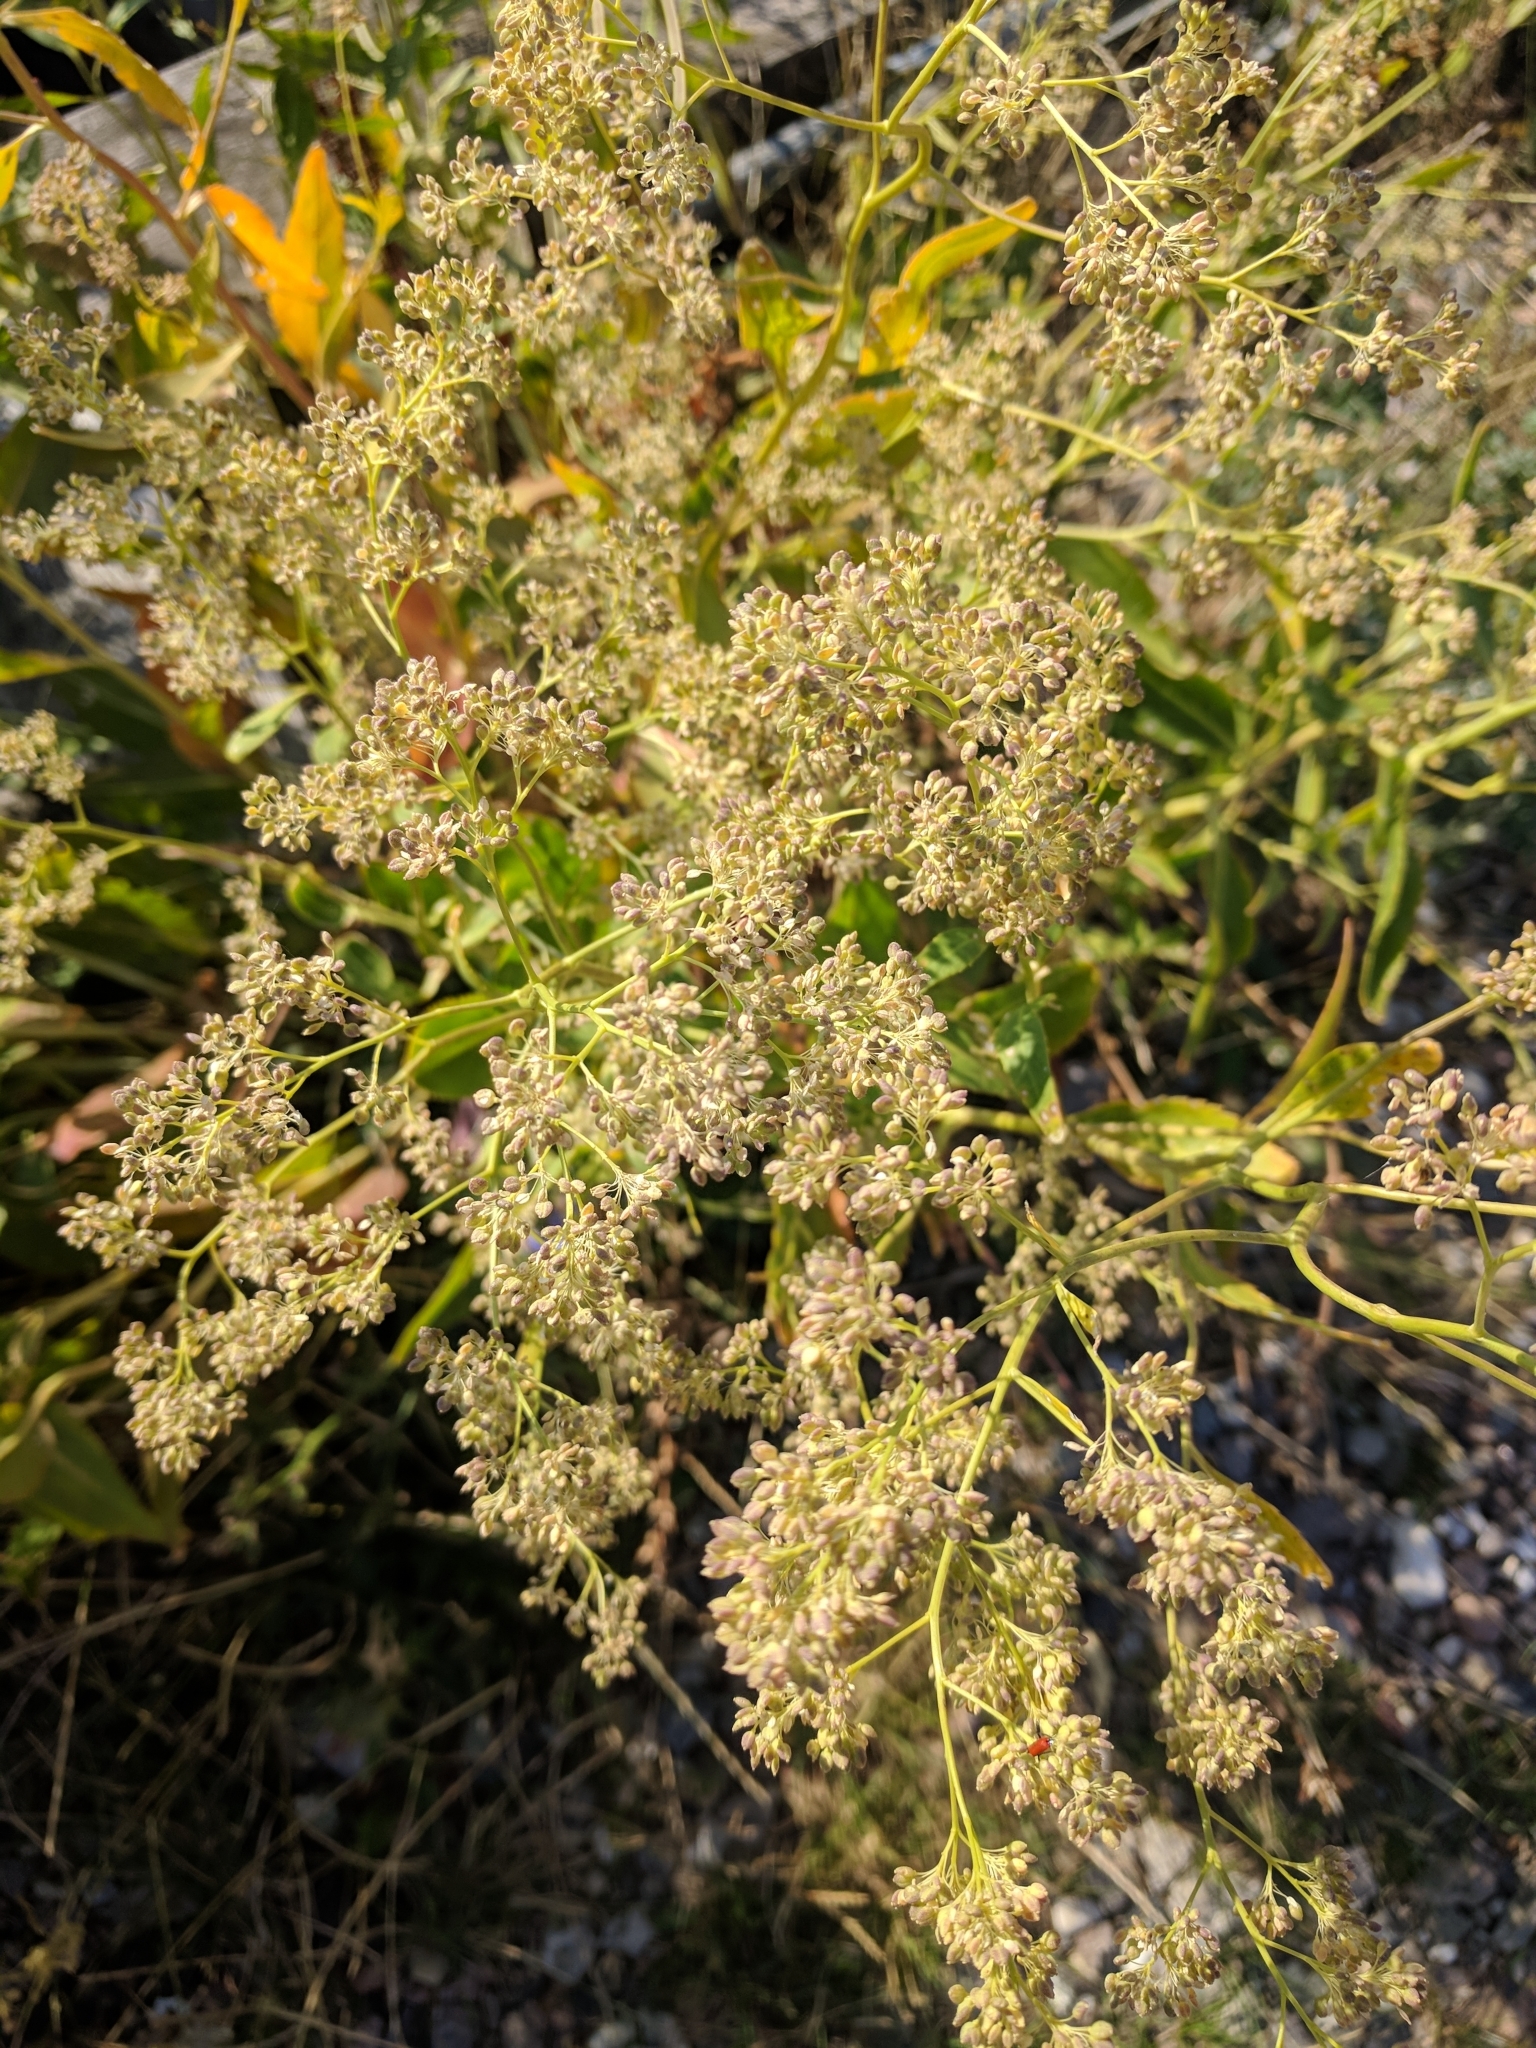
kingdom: Plantae
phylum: Tracheophyta
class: Magnoliopsida
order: Brassicales
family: Brassicaceae
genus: Lepidium
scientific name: Lepidium latifolium
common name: Dittander
